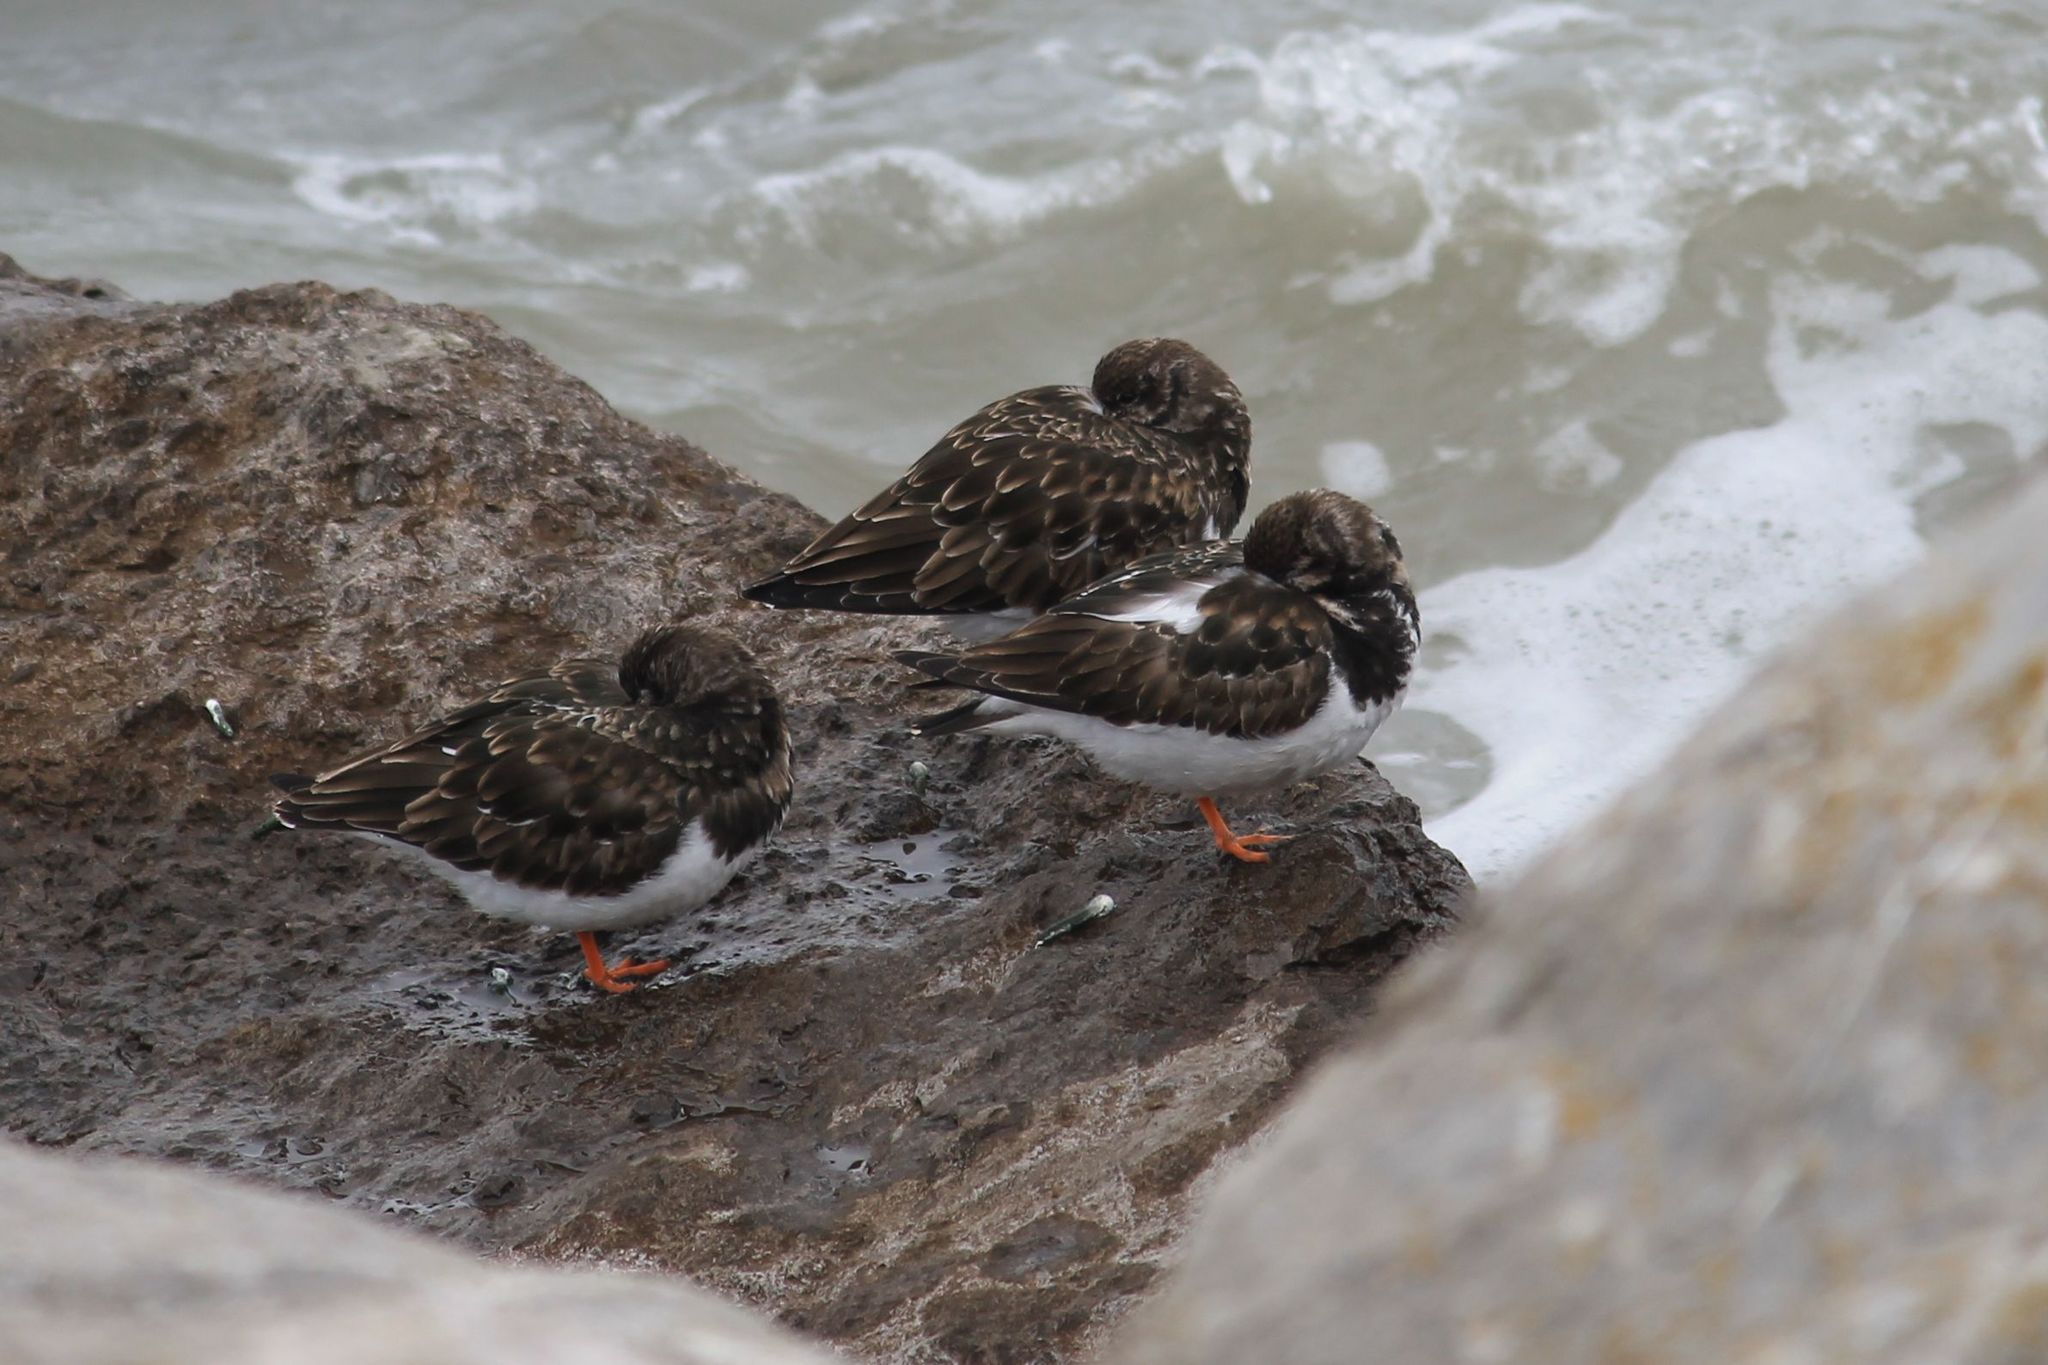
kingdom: Animalia
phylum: Chordata
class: Aves
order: Charadriiformes
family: Scolopacidae
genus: Arenaria
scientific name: Arenaria interpres
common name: Ruddy turnstone
